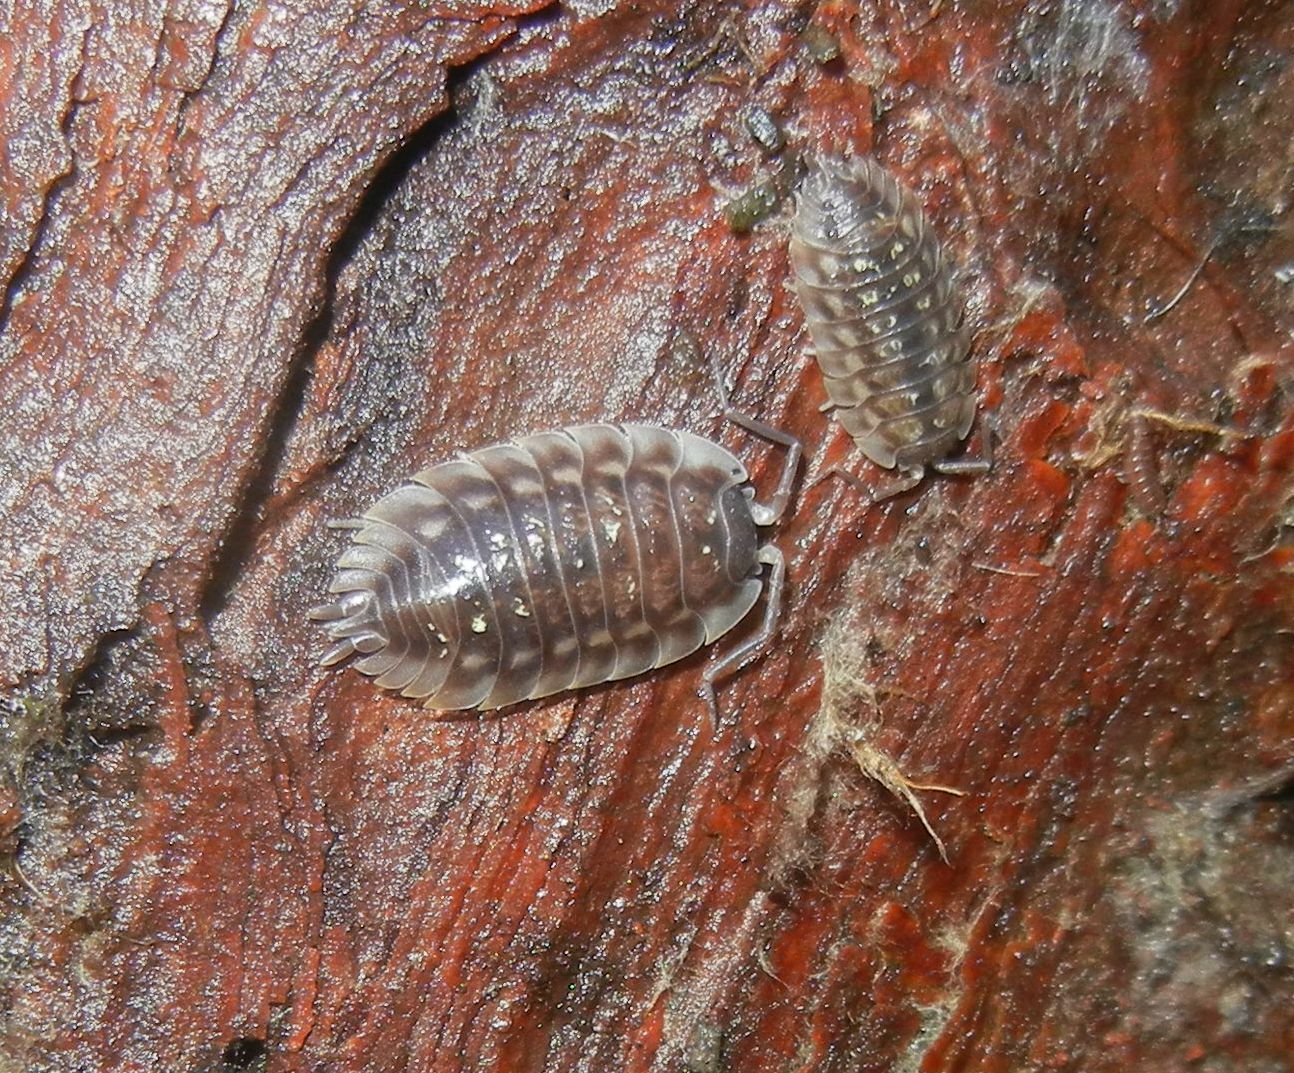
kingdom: Animalia
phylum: Arthropoda
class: Malacostraca
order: Isopoda
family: Oniscidae
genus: Oniscus
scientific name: Oniscus asellus
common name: Common shiny woodlouse
